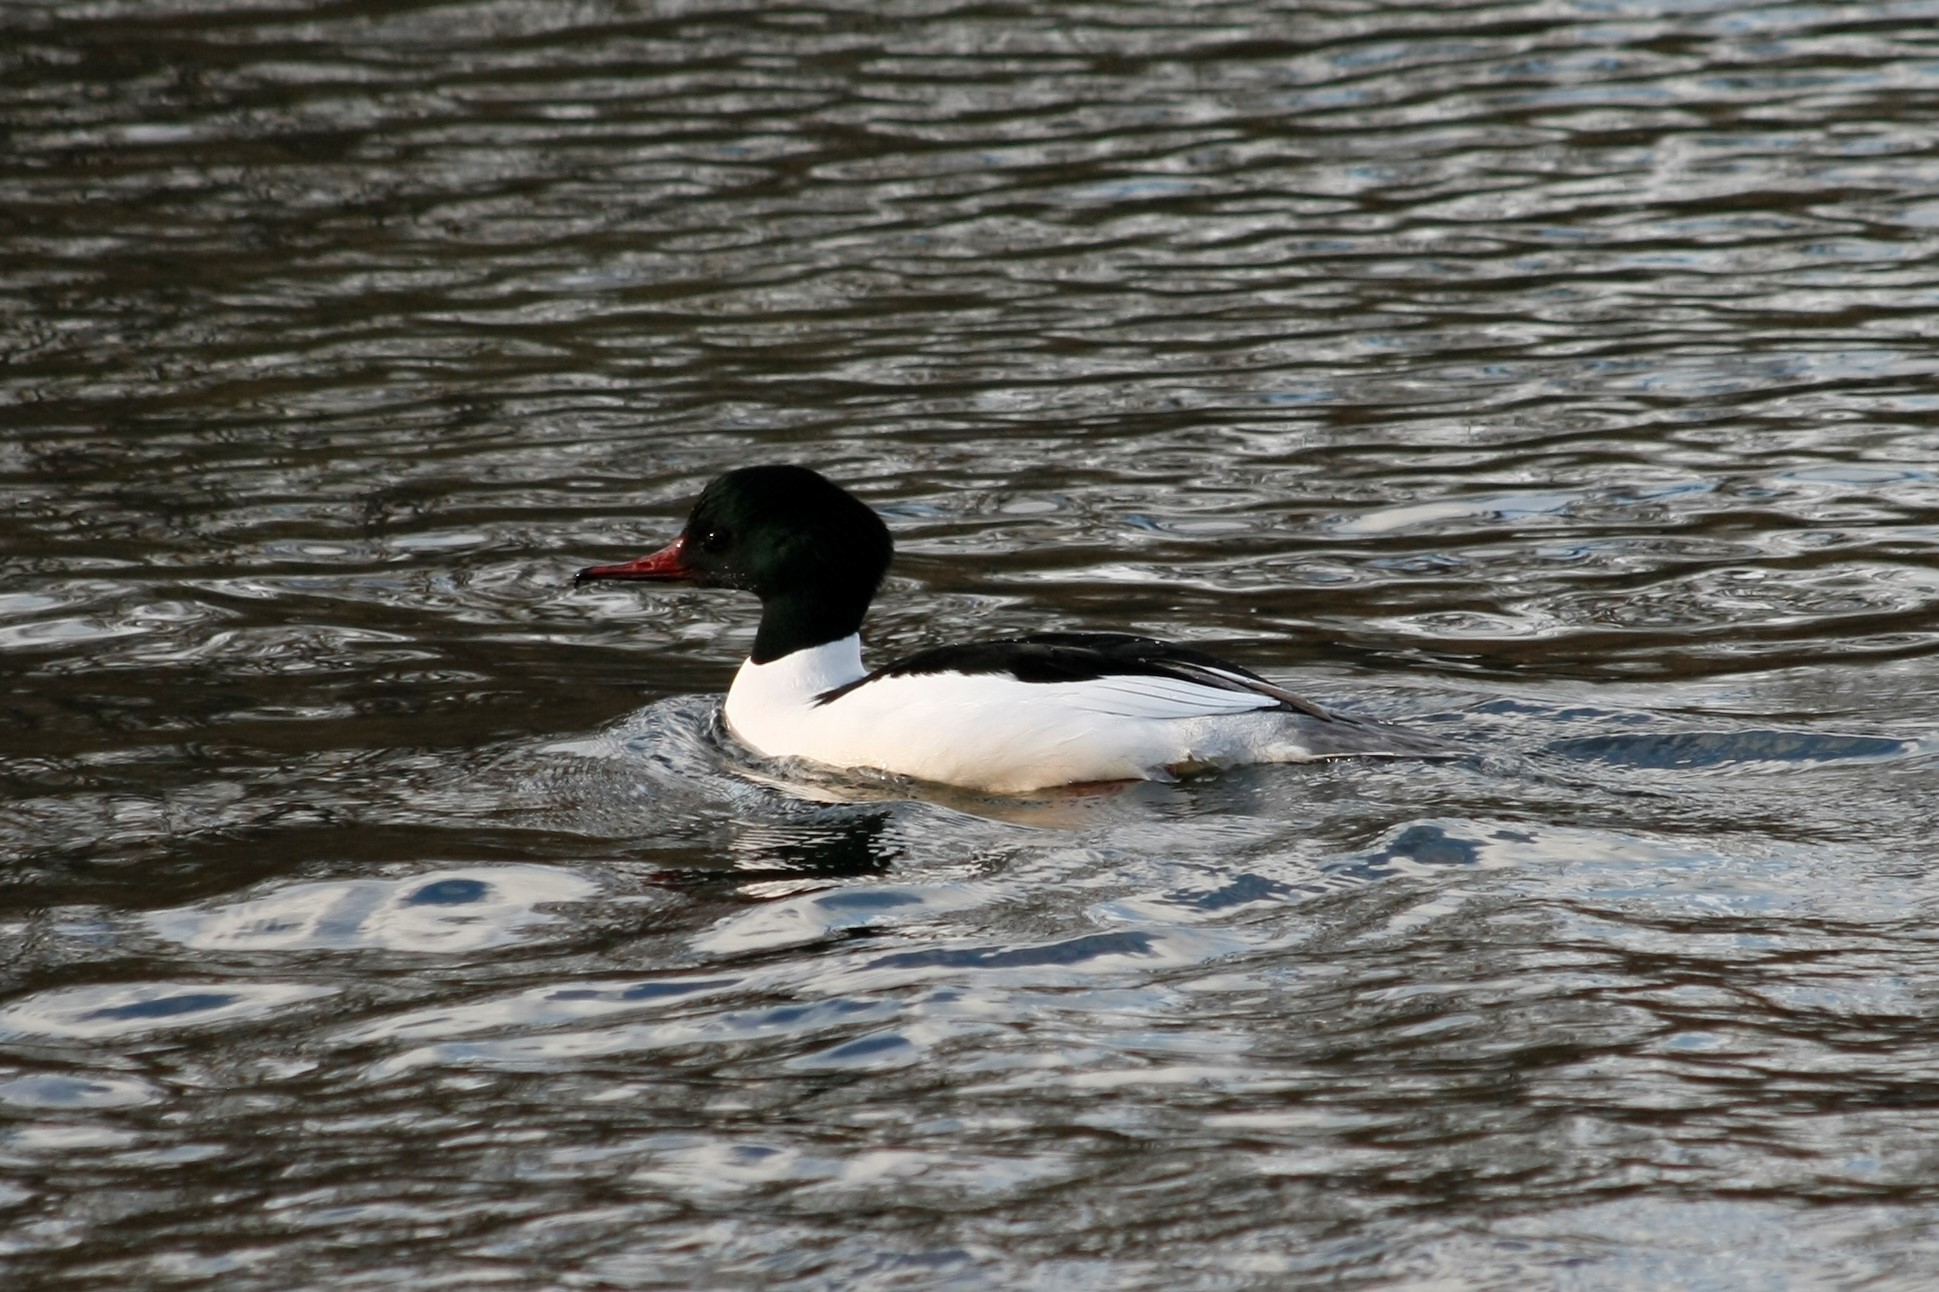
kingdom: Animalia
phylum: Chordata
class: Aves
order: Anseriformes
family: Anatidae
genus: Mergus
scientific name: Mergus merganser
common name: Common merganser
